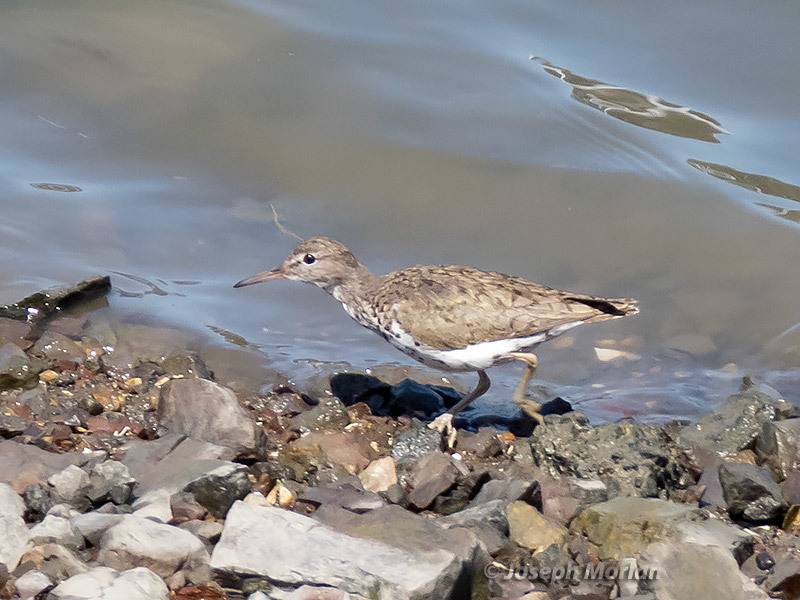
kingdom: Animalia
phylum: Chordata
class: Aves
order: Charadriiformes
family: Scolopacidae
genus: Actitis
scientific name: Actitis macularius
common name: Spotted sandpiper
